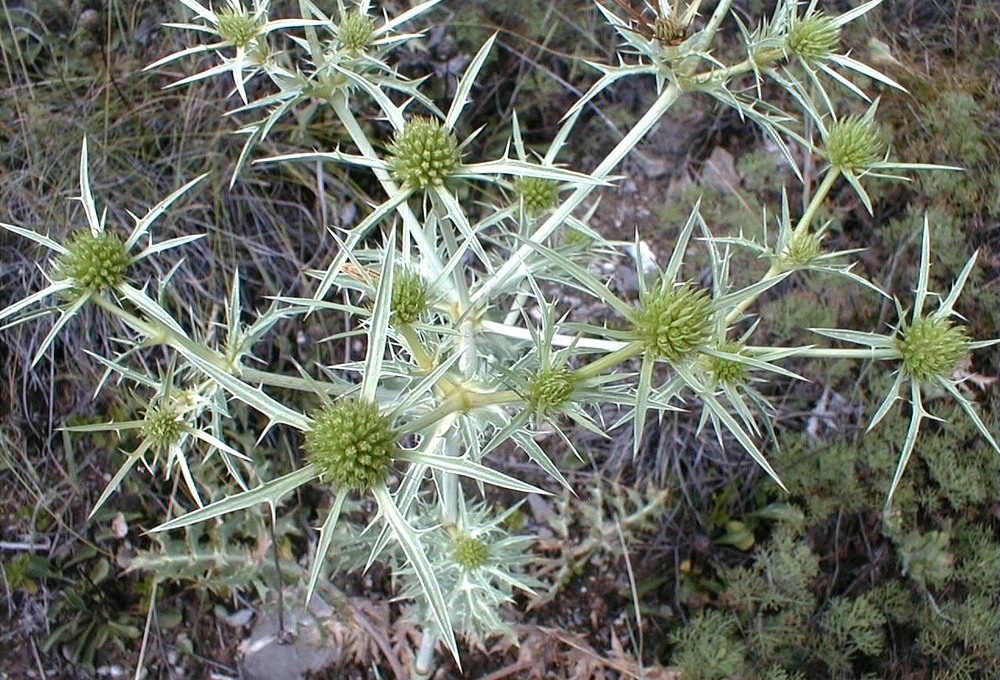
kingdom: Plantae
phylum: Tracheophyta
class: Magnoliopsida
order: Apiales
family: Apiaceae
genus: Eryngium
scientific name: Eryngium campestre
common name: Field eryngo
